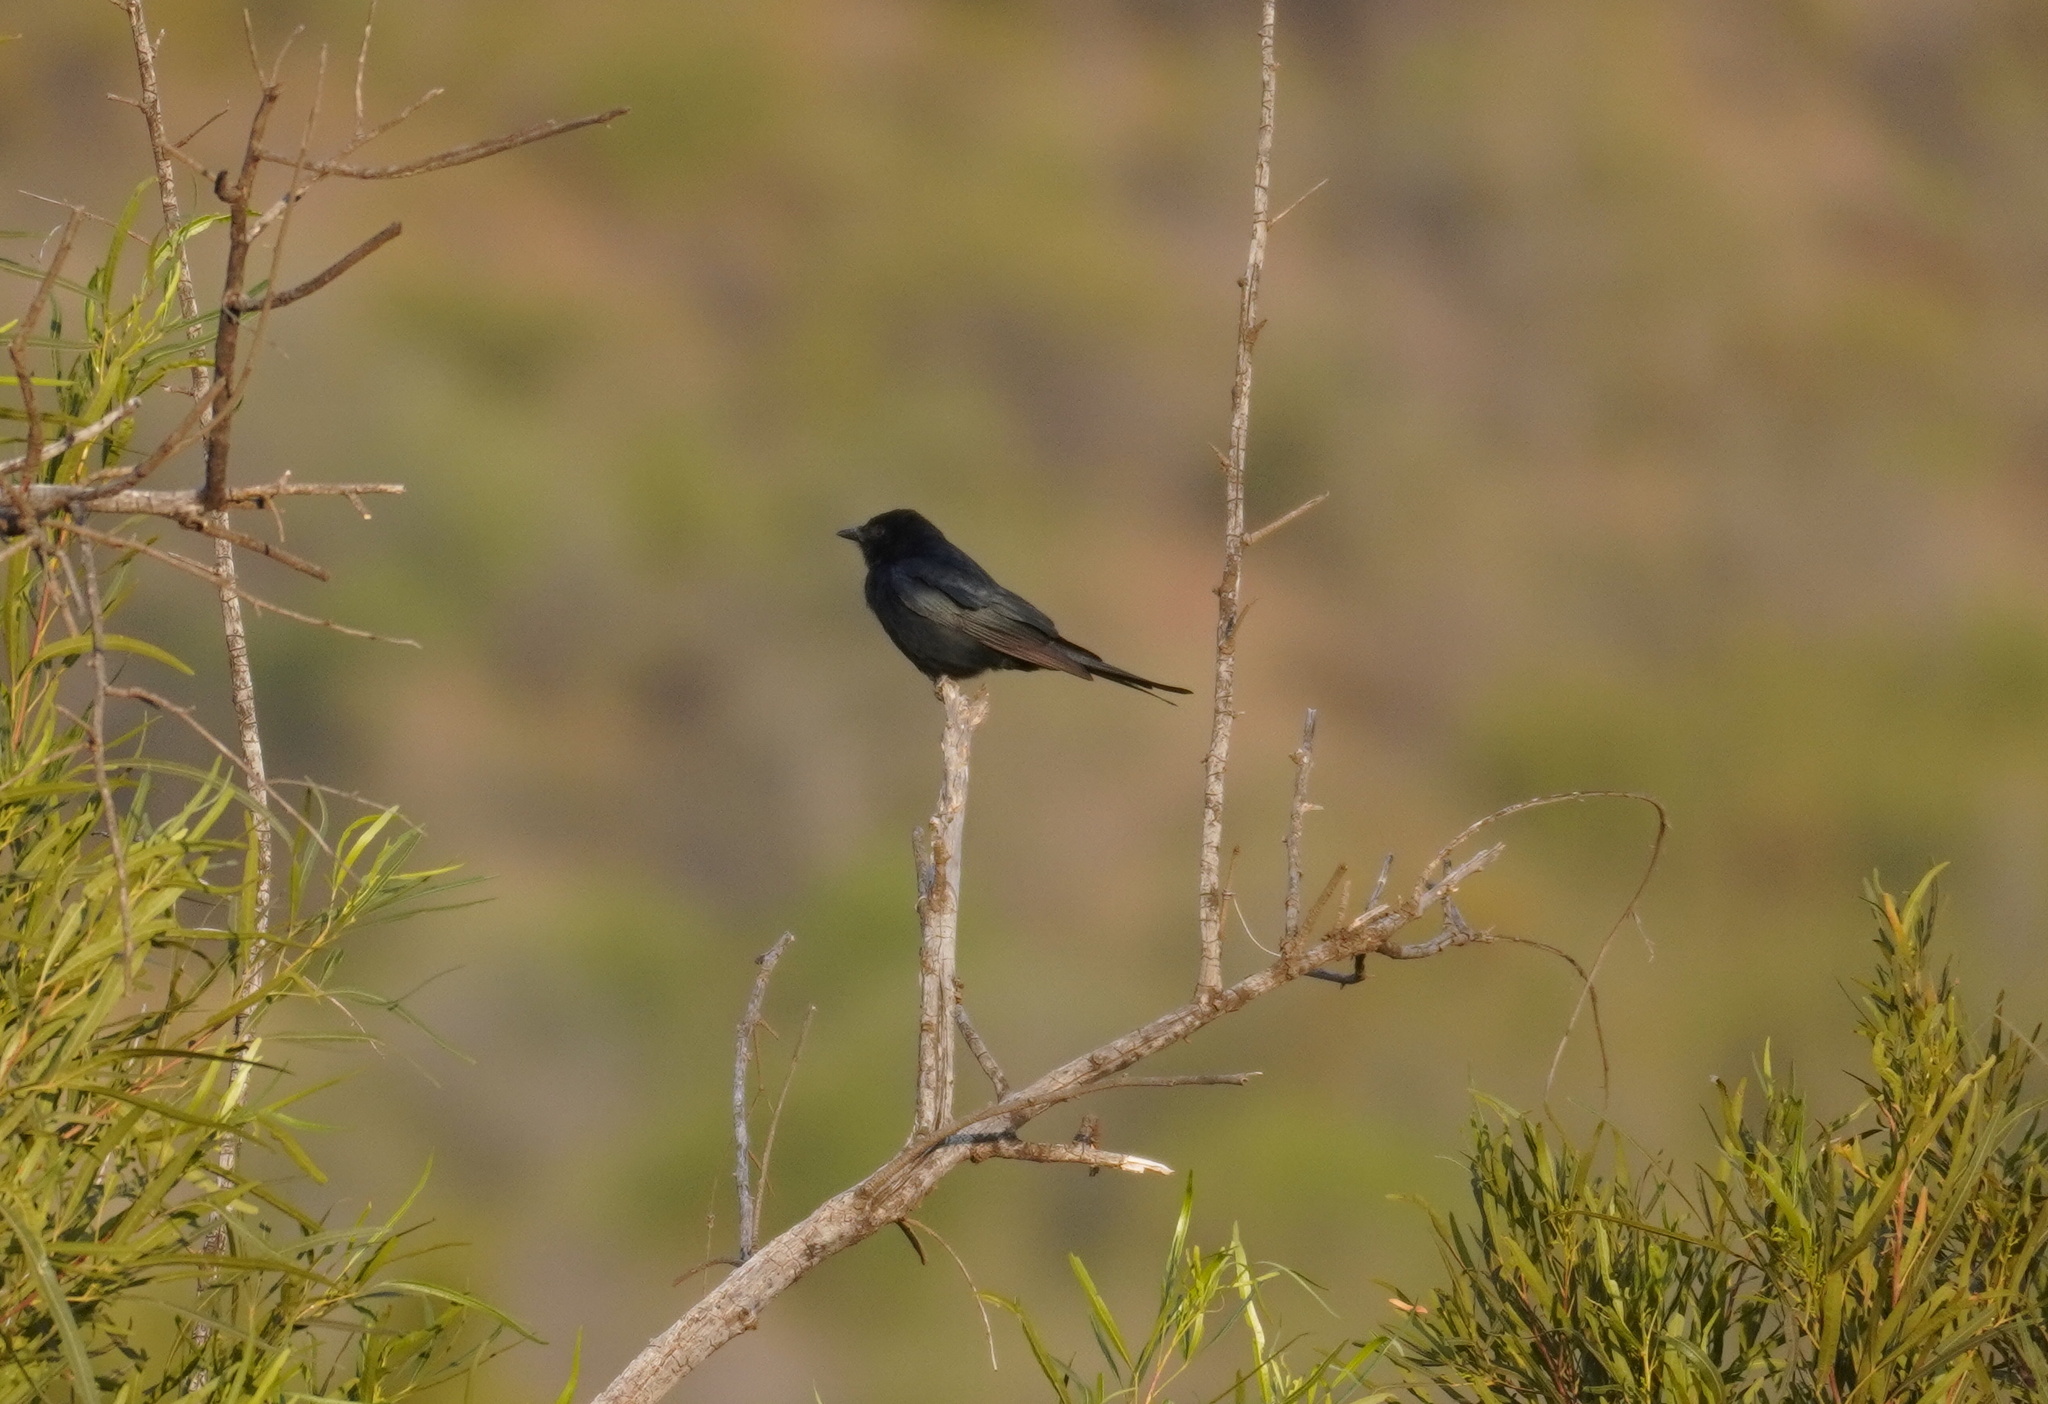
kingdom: Animalia
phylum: Chordata
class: Aves
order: Passeriformes
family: Dicruridae
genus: Dicrurus
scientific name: Dicrurus adsimilis
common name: Fork-tailed drongo
